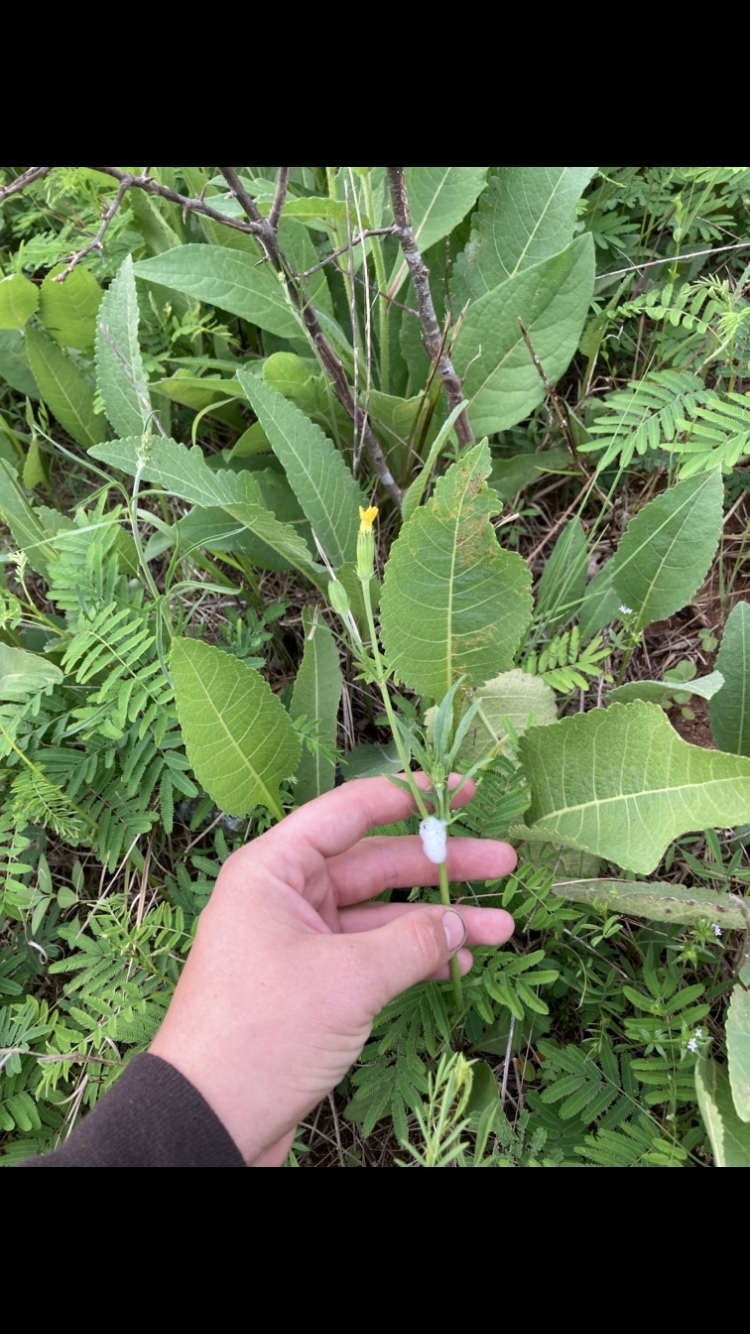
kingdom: Plantae
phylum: Tracheophyta
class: Magnoliopsida
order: Asterales
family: Asteraceae
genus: Pyrrhopappus
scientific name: Pyrrhopappus pauciflorus
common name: Texas false dandelion
